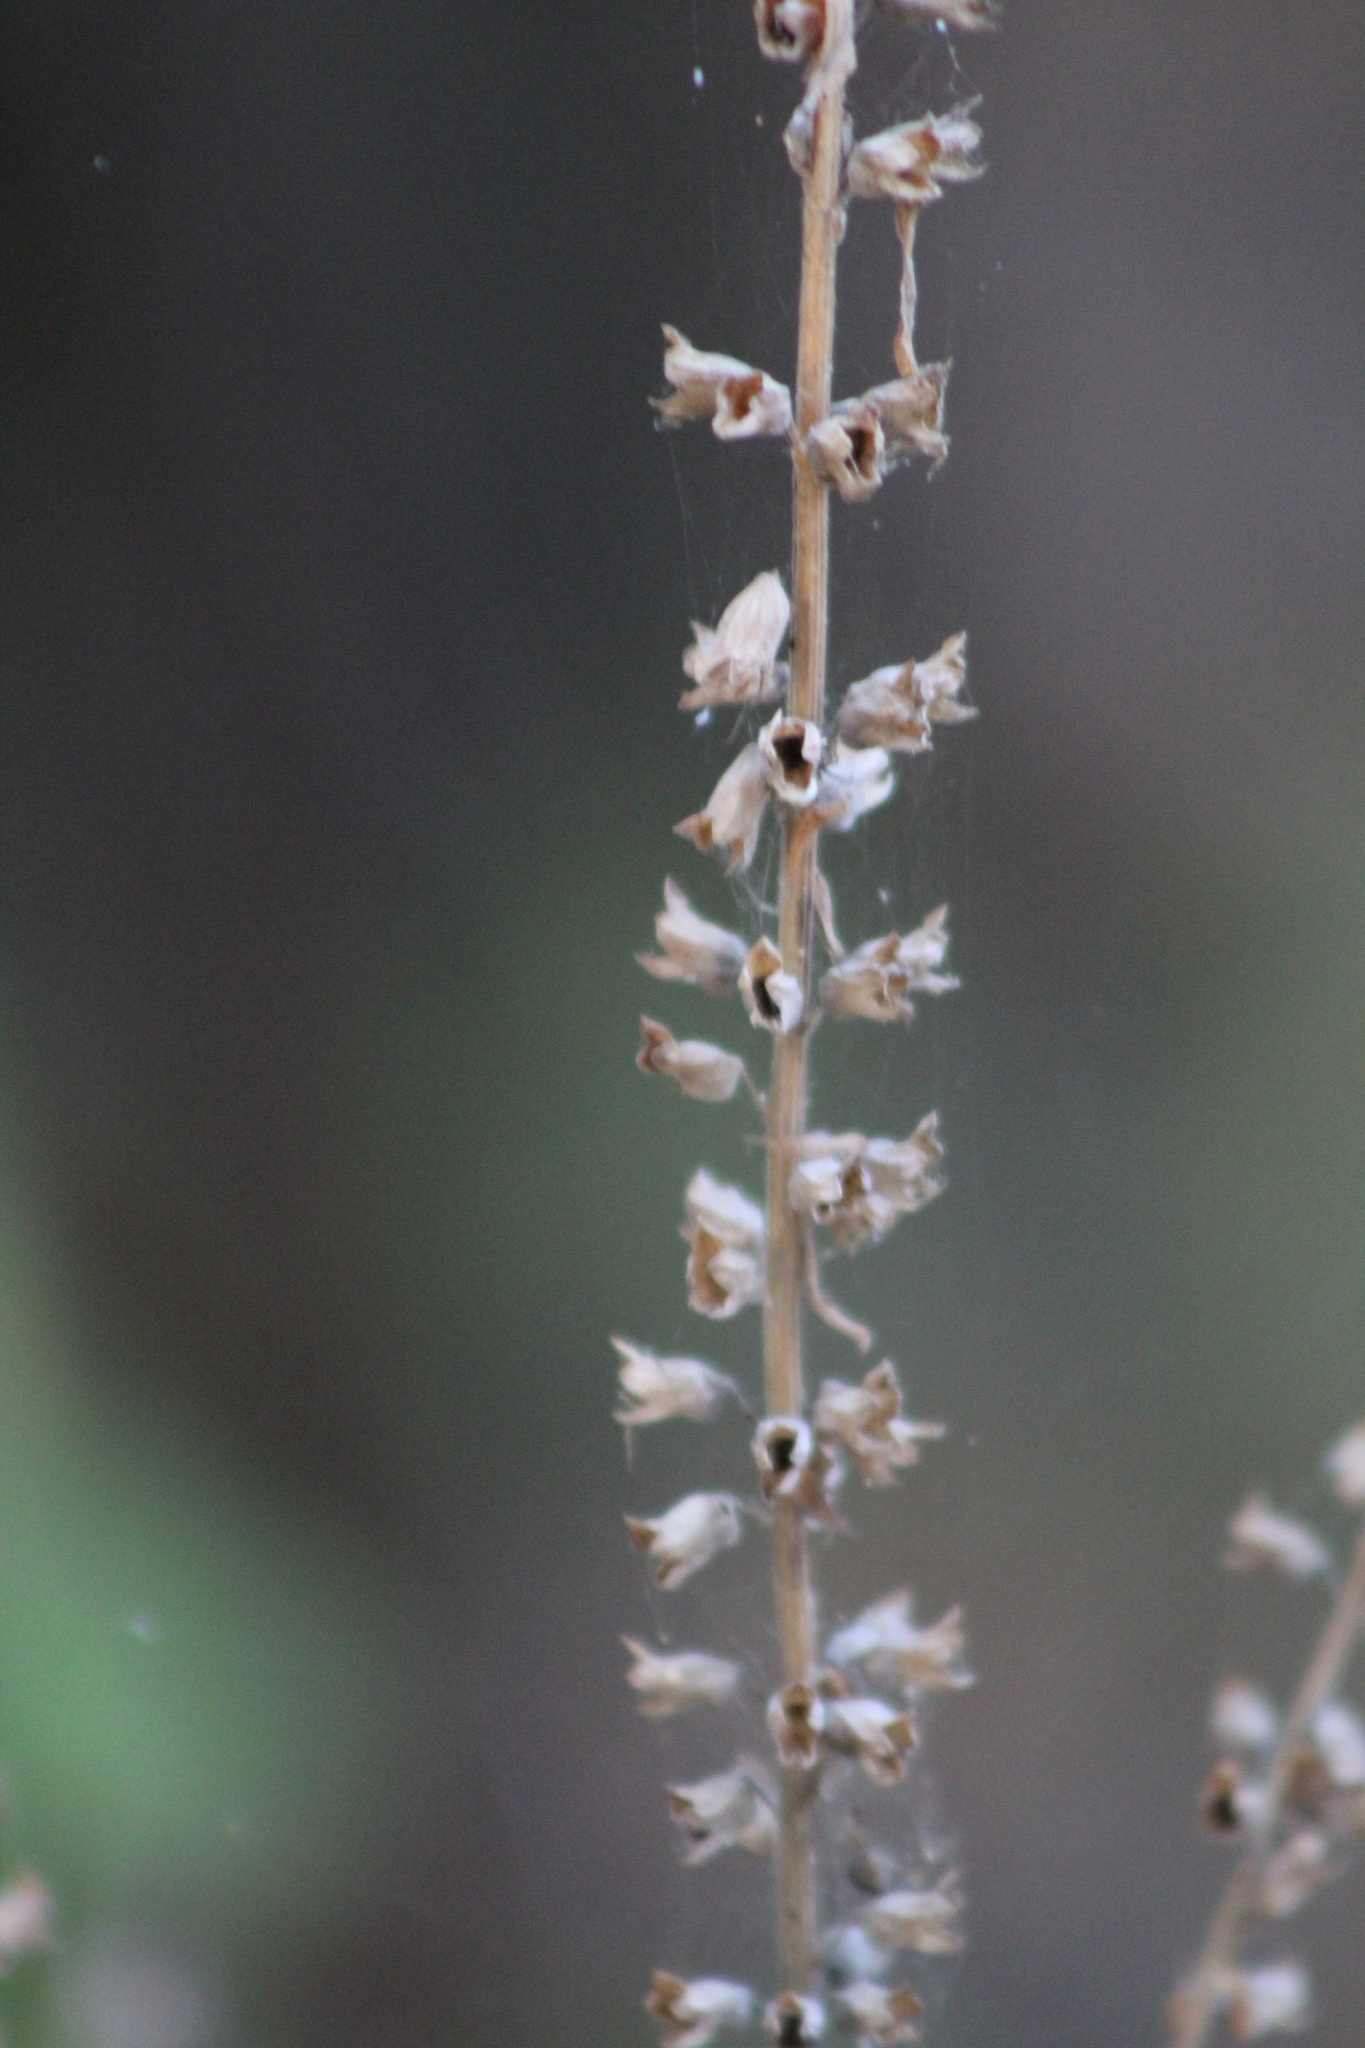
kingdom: Plantae
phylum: Tracheophyta
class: Magnoliopsida
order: Lamiales
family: Lamiaceae
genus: Teucrium
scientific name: Teucrium canadense
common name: American germander
